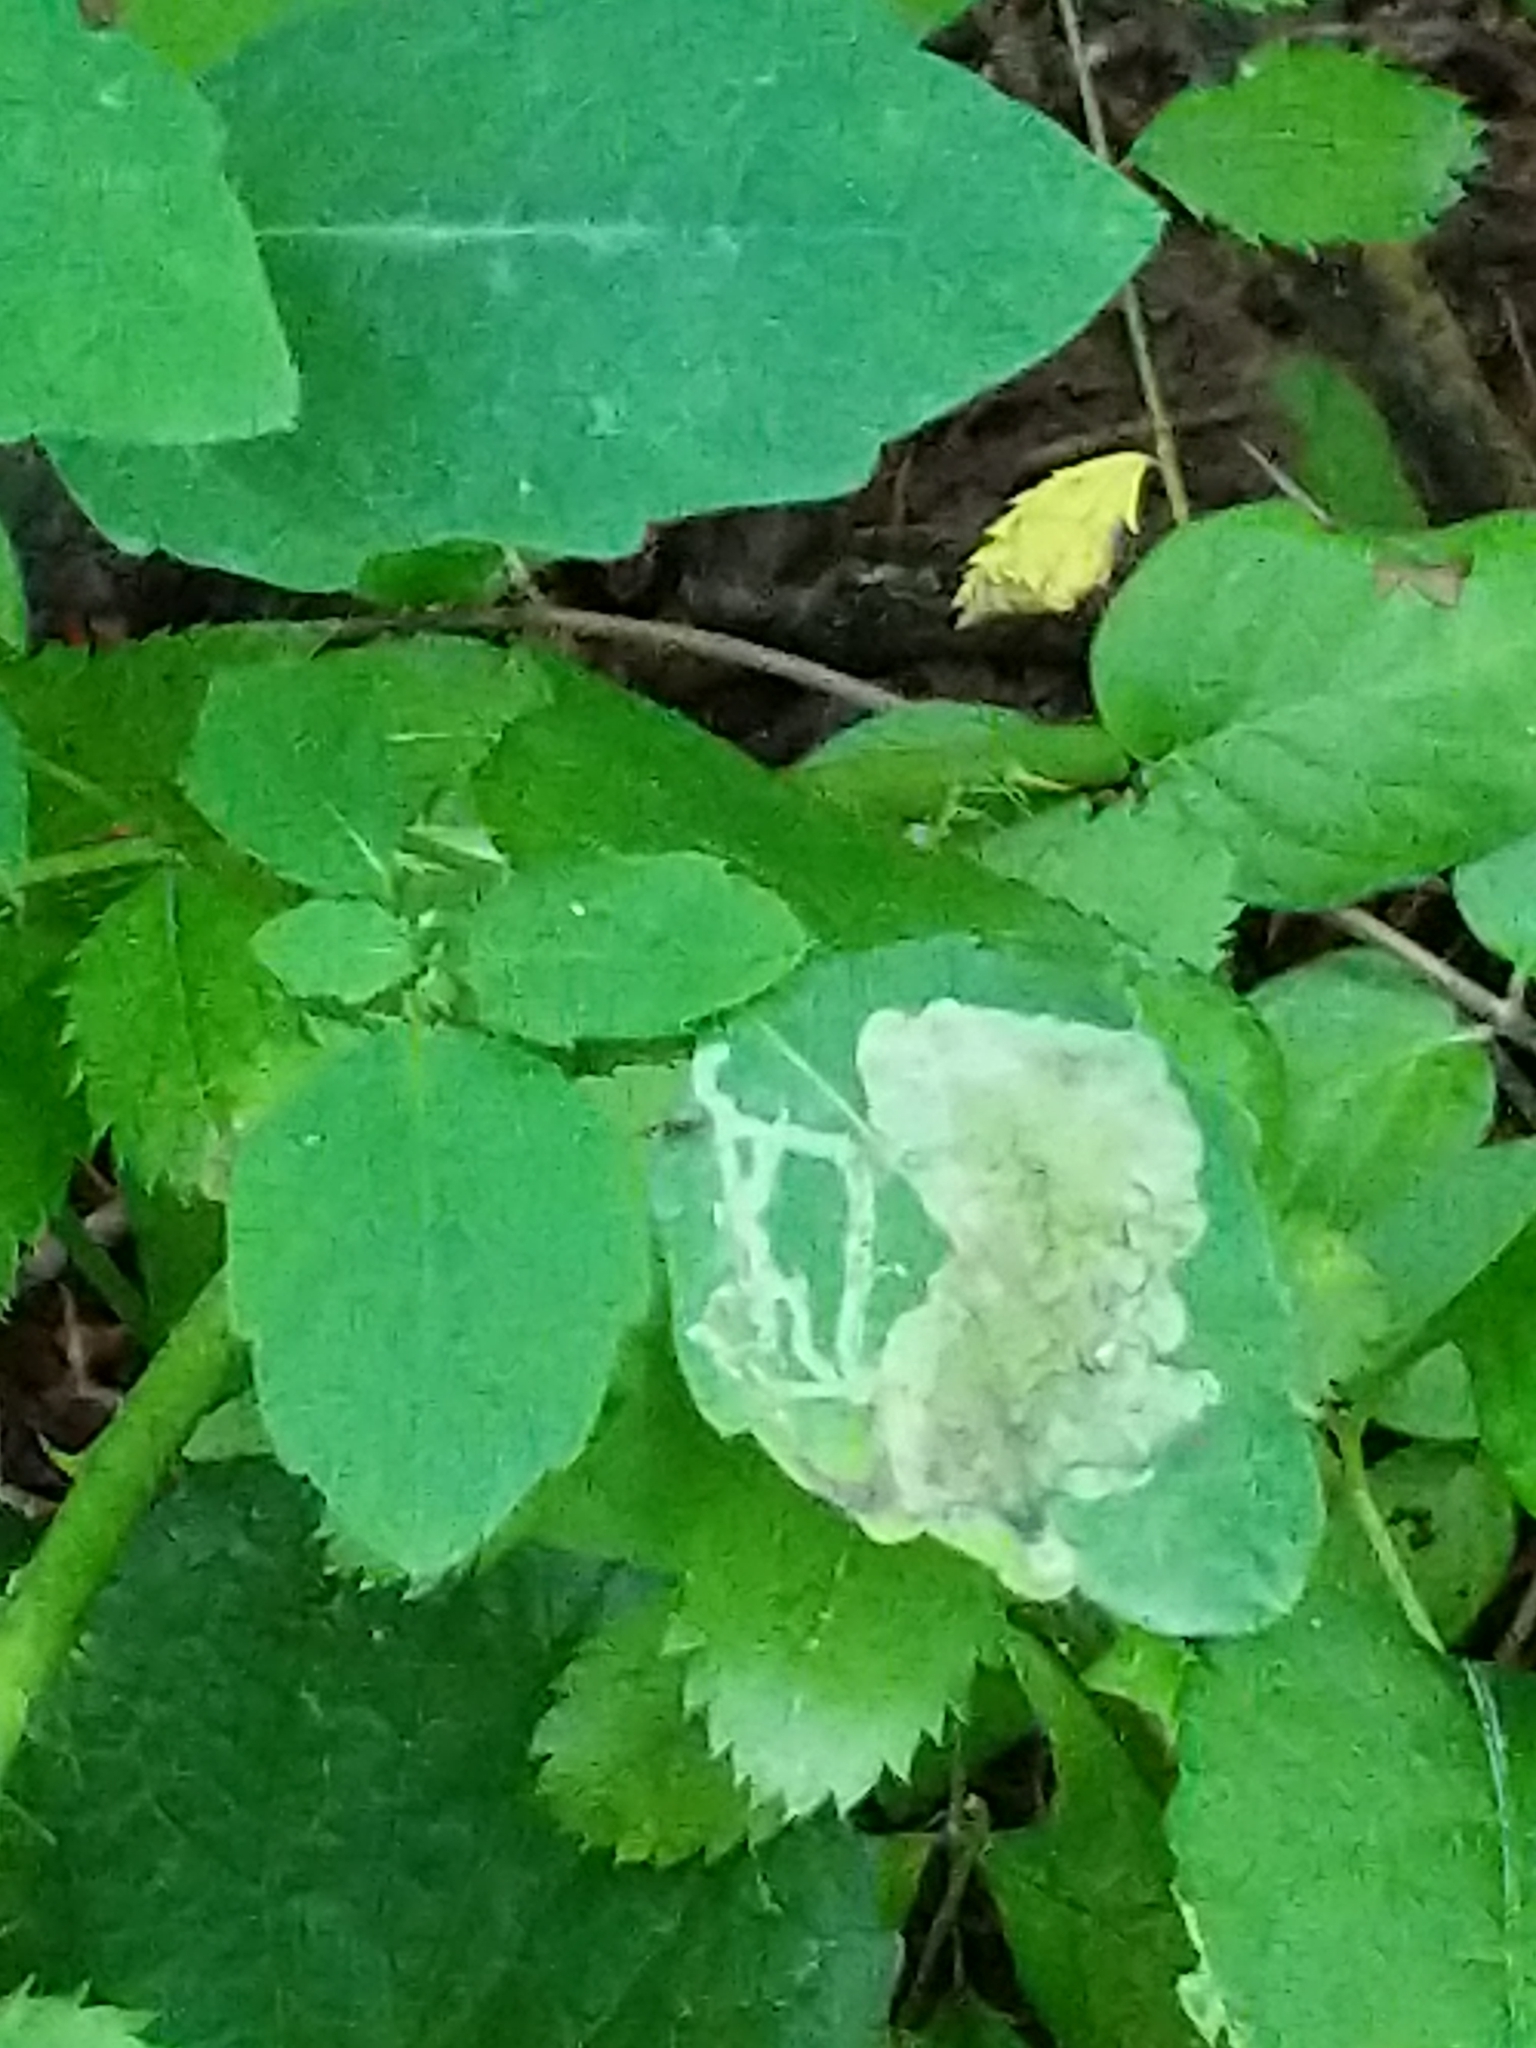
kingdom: Animalia
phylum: Arthropoda
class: Insecta
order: Diptera
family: Agromyzidae
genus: Phytoliriomyza
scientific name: Phytoliriomyza melampyga
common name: Jewelweed leaf-miner fly
